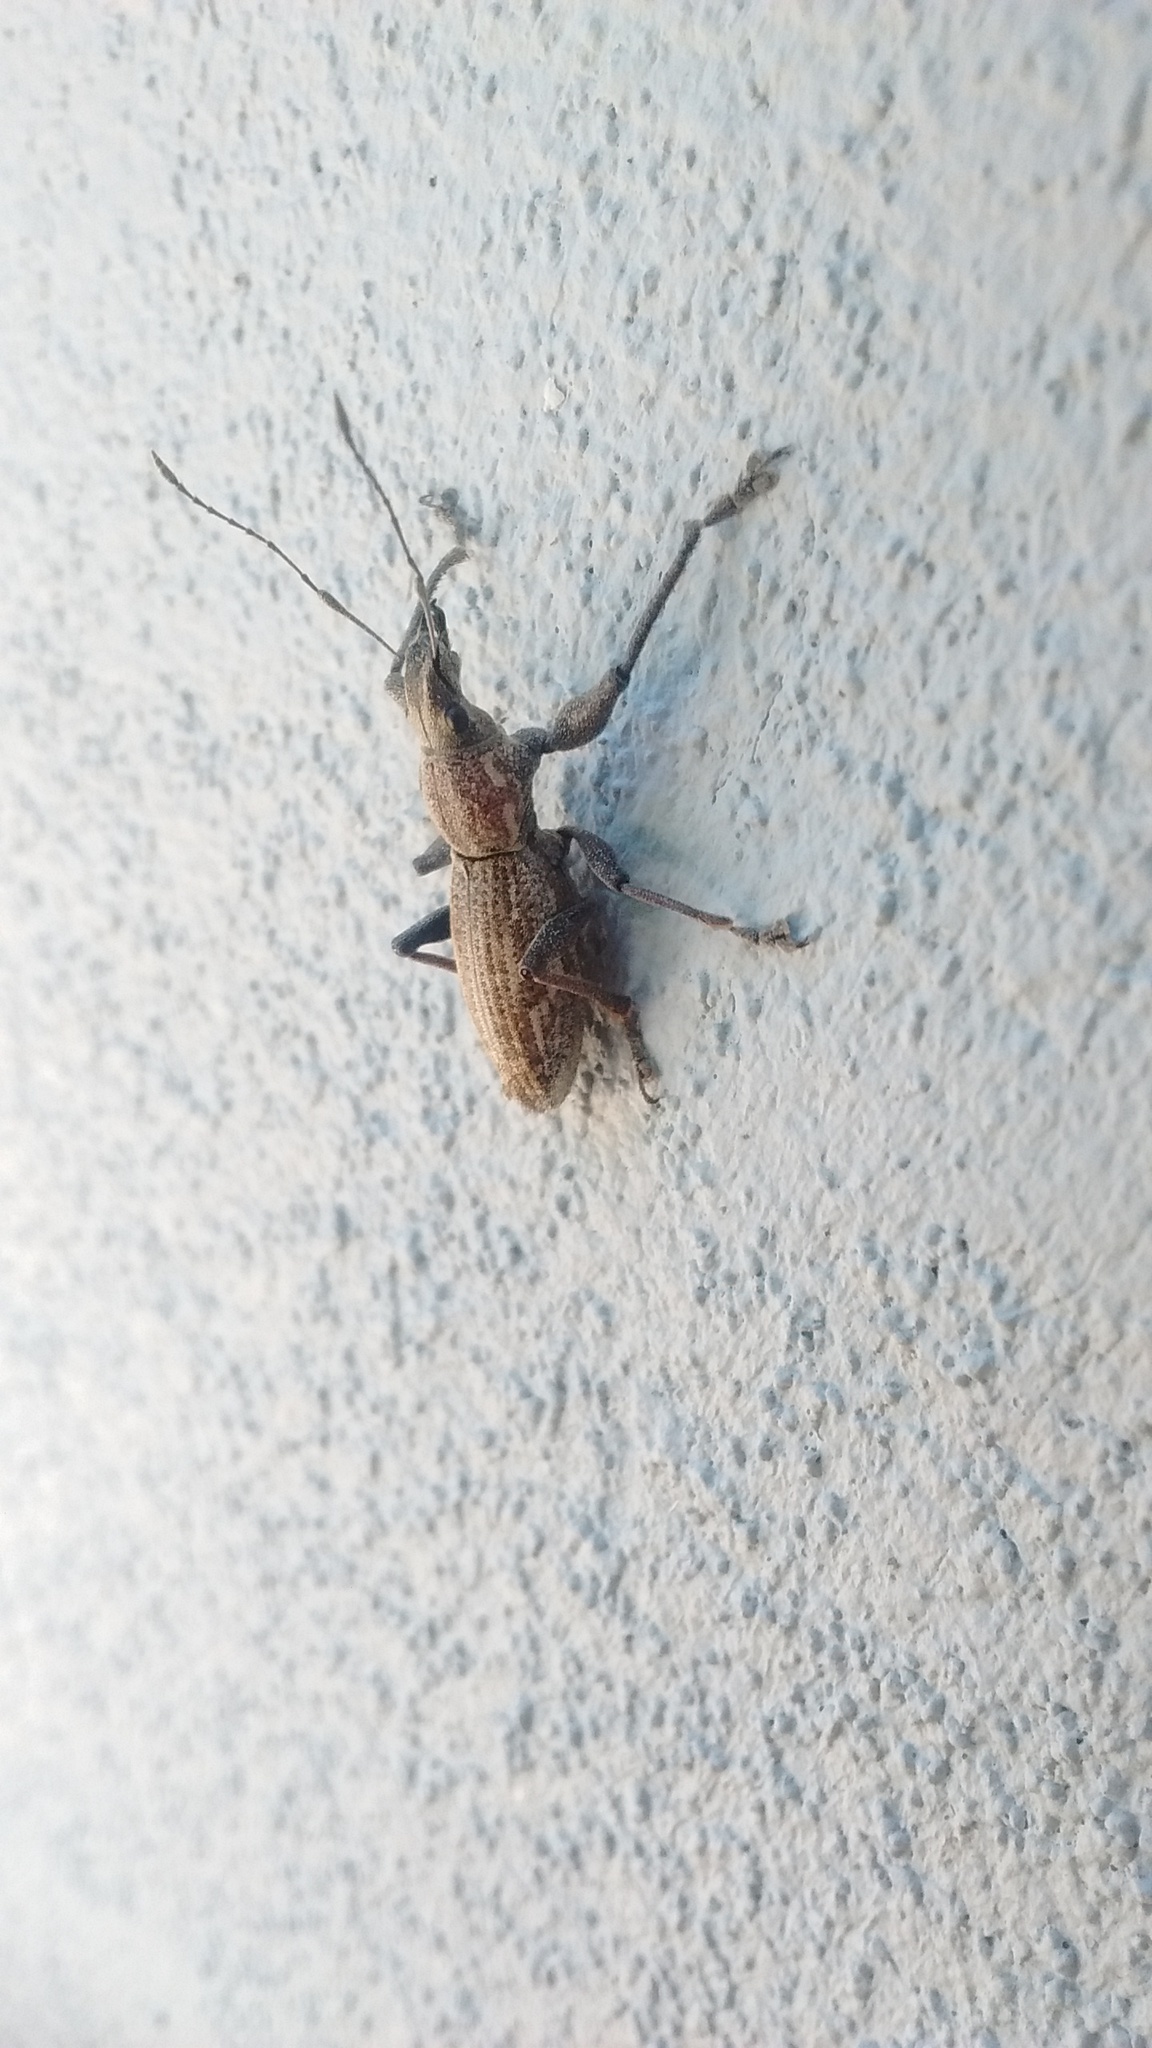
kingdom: Animalia
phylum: Arthropoda
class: Insecta
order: Coleoptera
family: Curculionidae
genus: Naupactus
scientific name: Naupactus xanthographus
